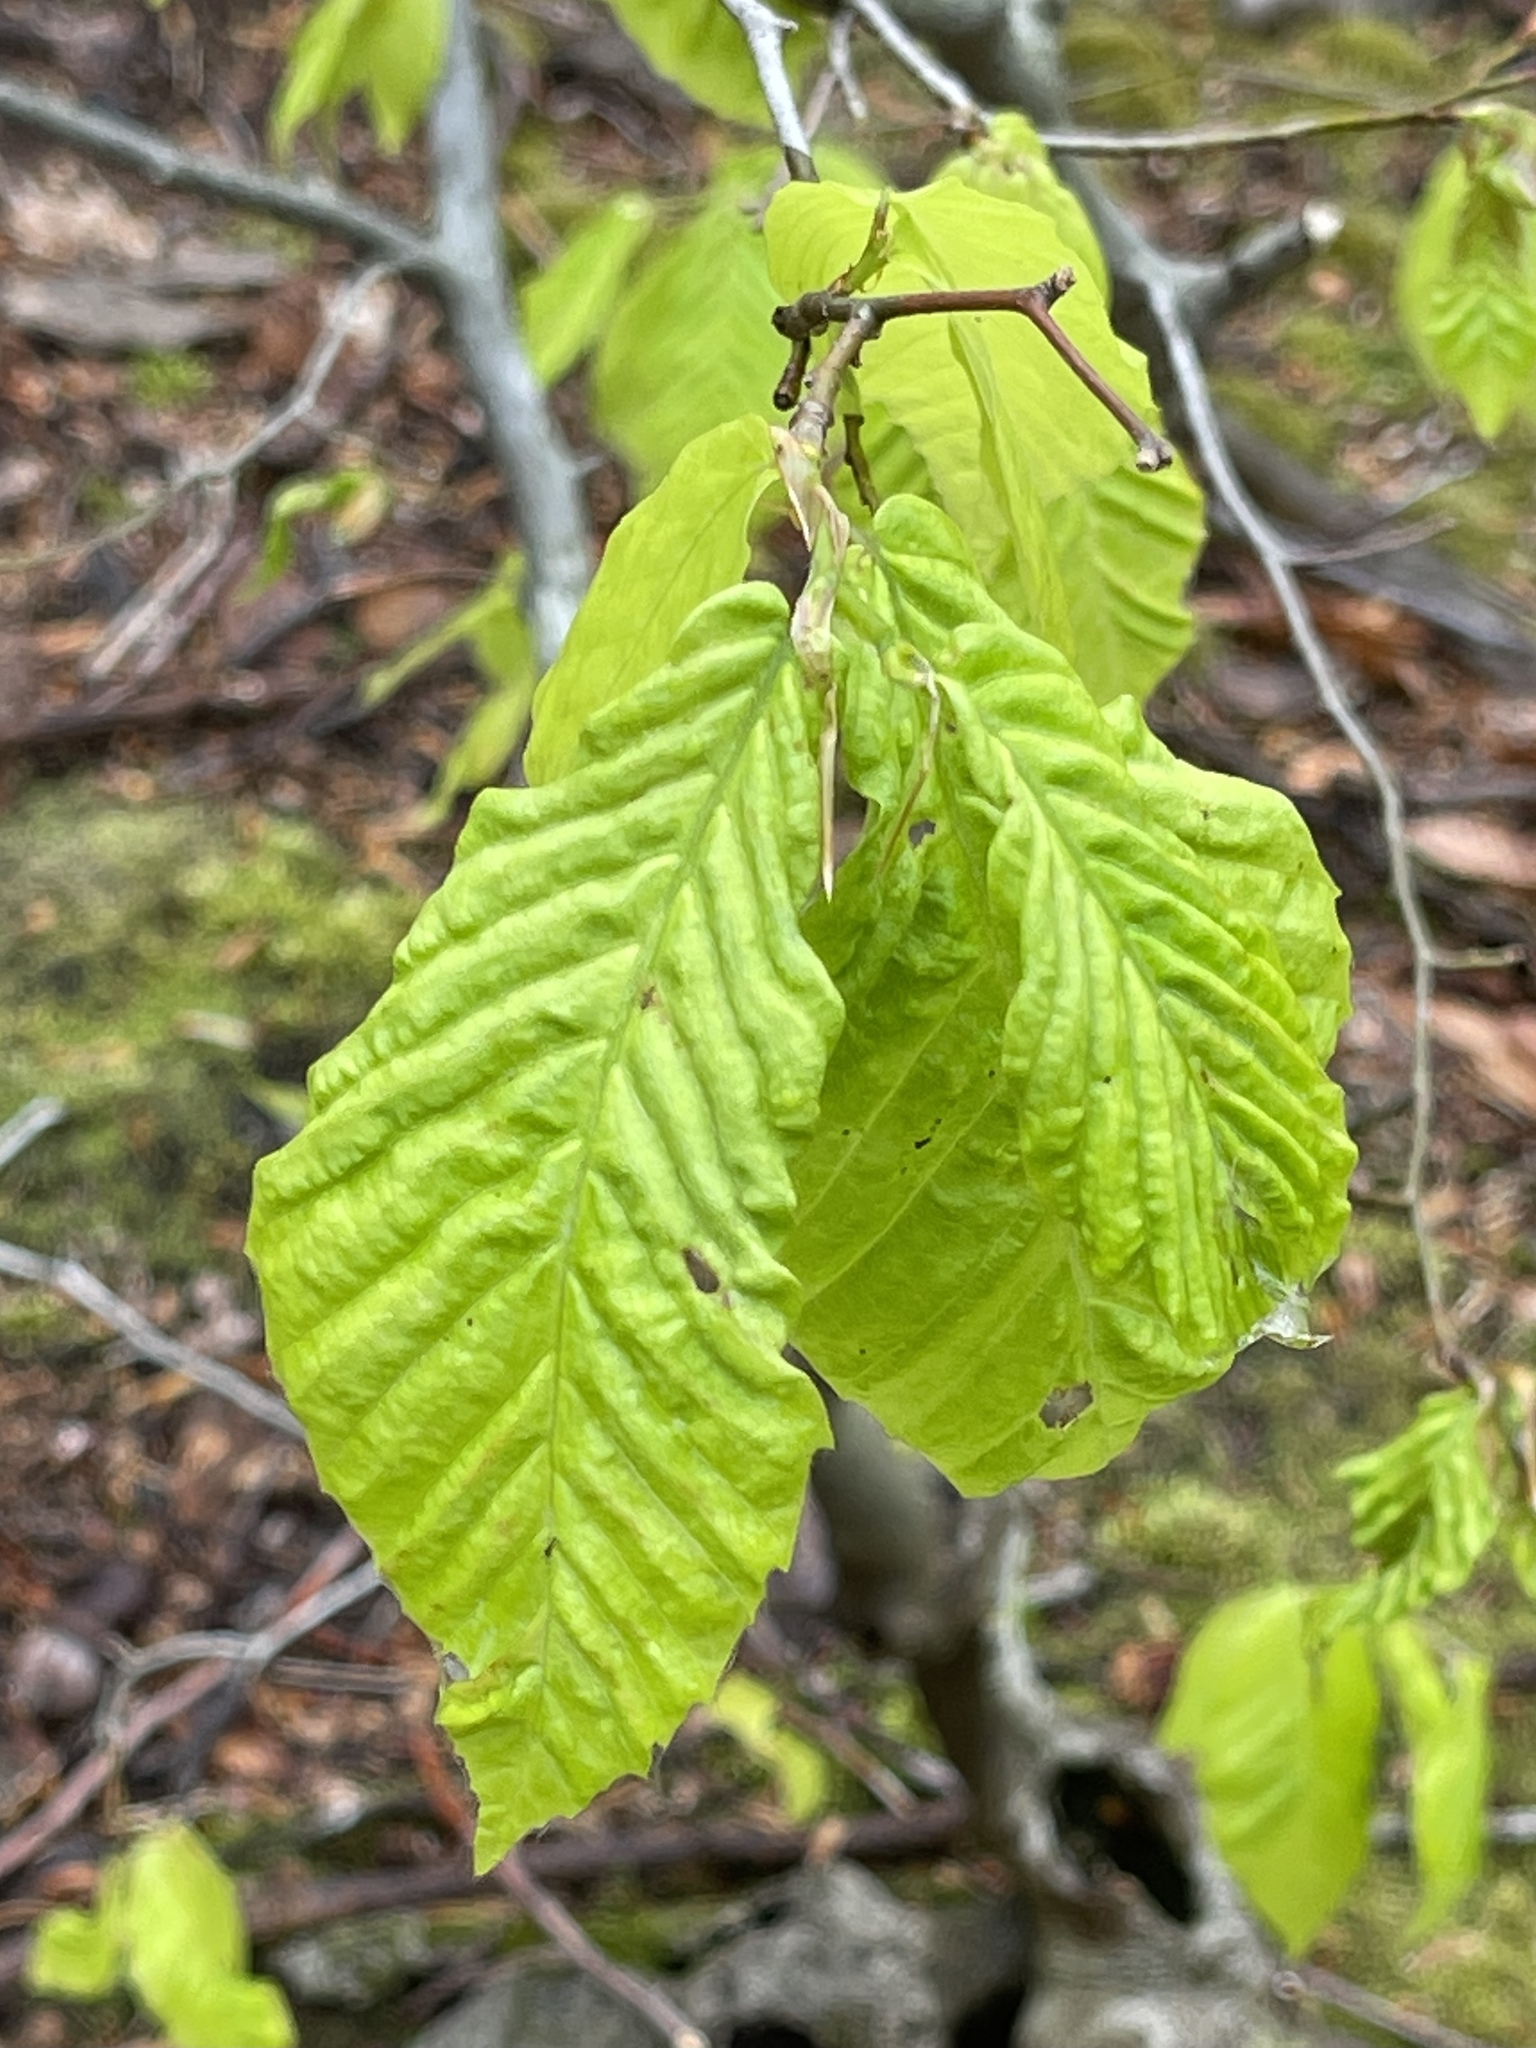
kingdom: Animalia
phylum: Nematoda
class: Chromadorea
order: Rhabditida
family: Anguinidae
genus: Litylenchus
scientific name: Litylenchus crenatae
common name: Beech leaf disease
